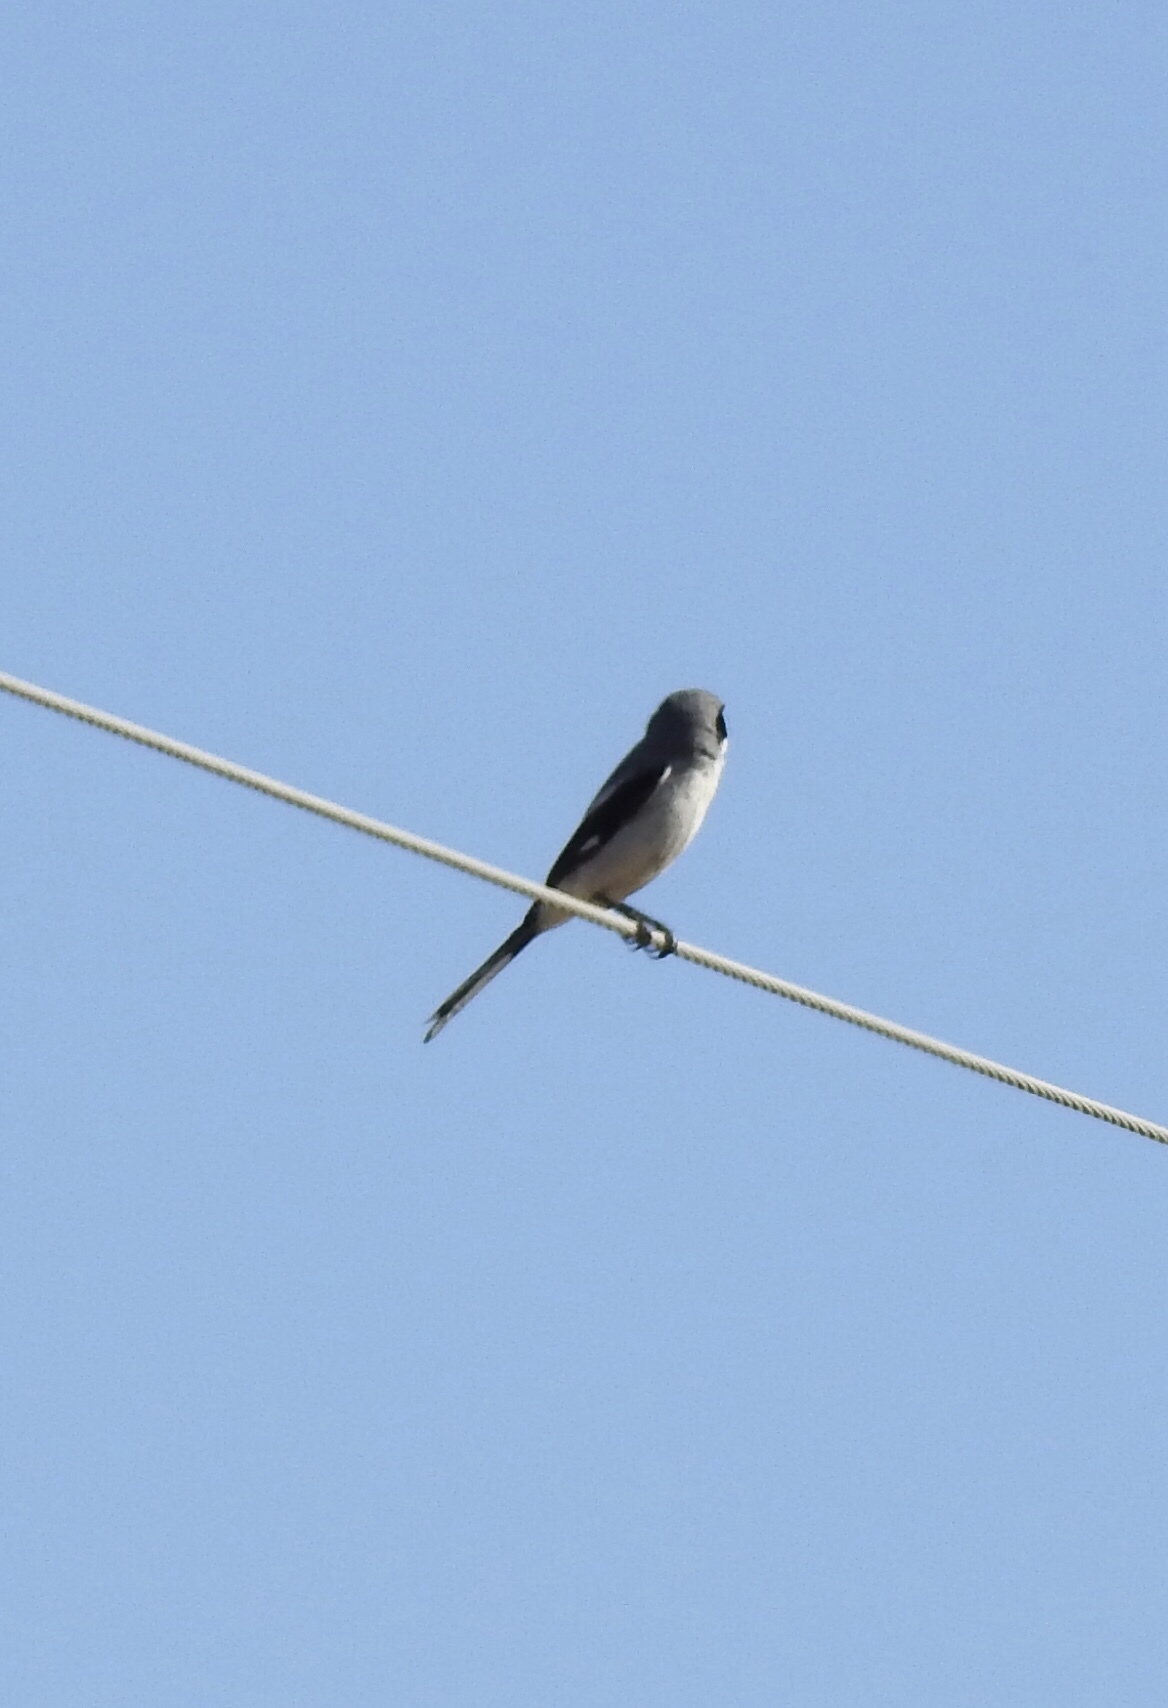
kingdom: Animalia
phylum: Chordata
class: Aves
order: Passeriformes
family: Laniidae
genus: Lanius
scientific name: Lanius ludovicianus
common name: Loggerhead shrike
